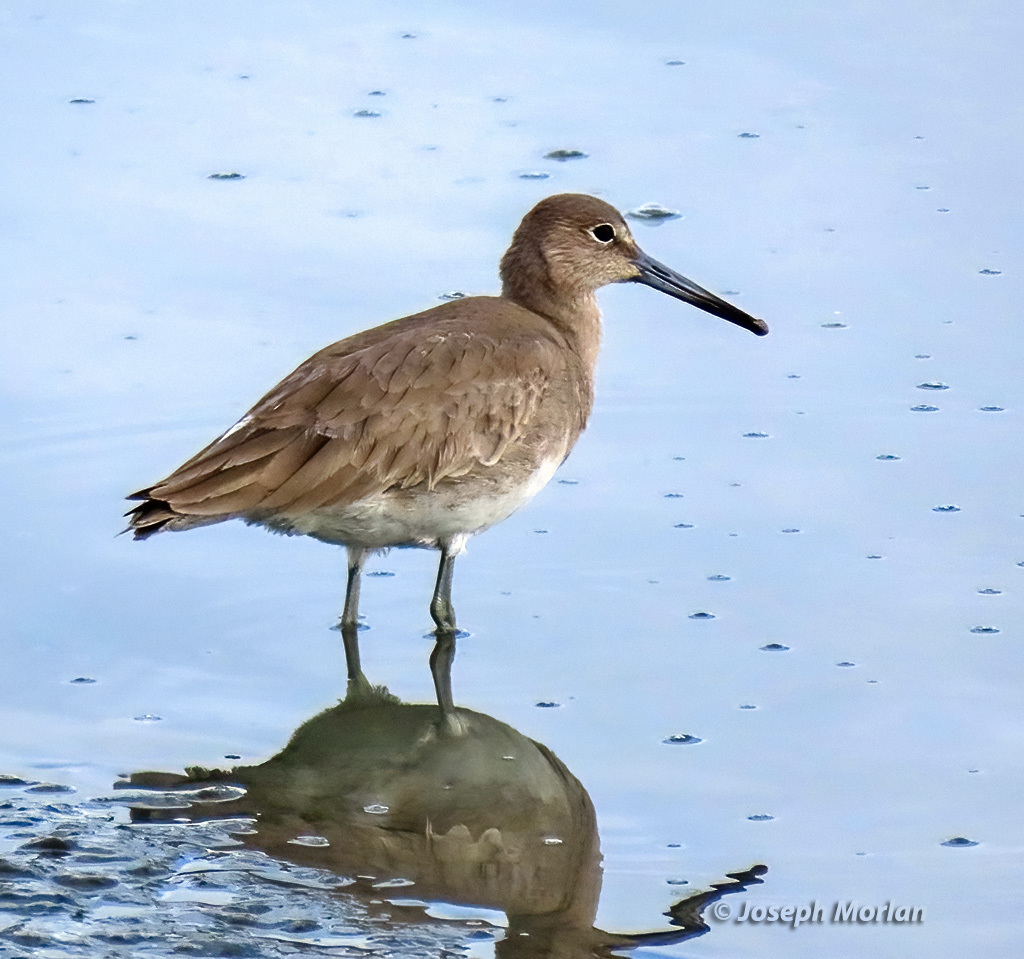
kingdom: Animalia
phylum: Chordata
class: Aves
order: Charadriiformes
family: Scolopacidae
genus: Tringa
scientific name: Tringa semipalmata
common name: Willet
